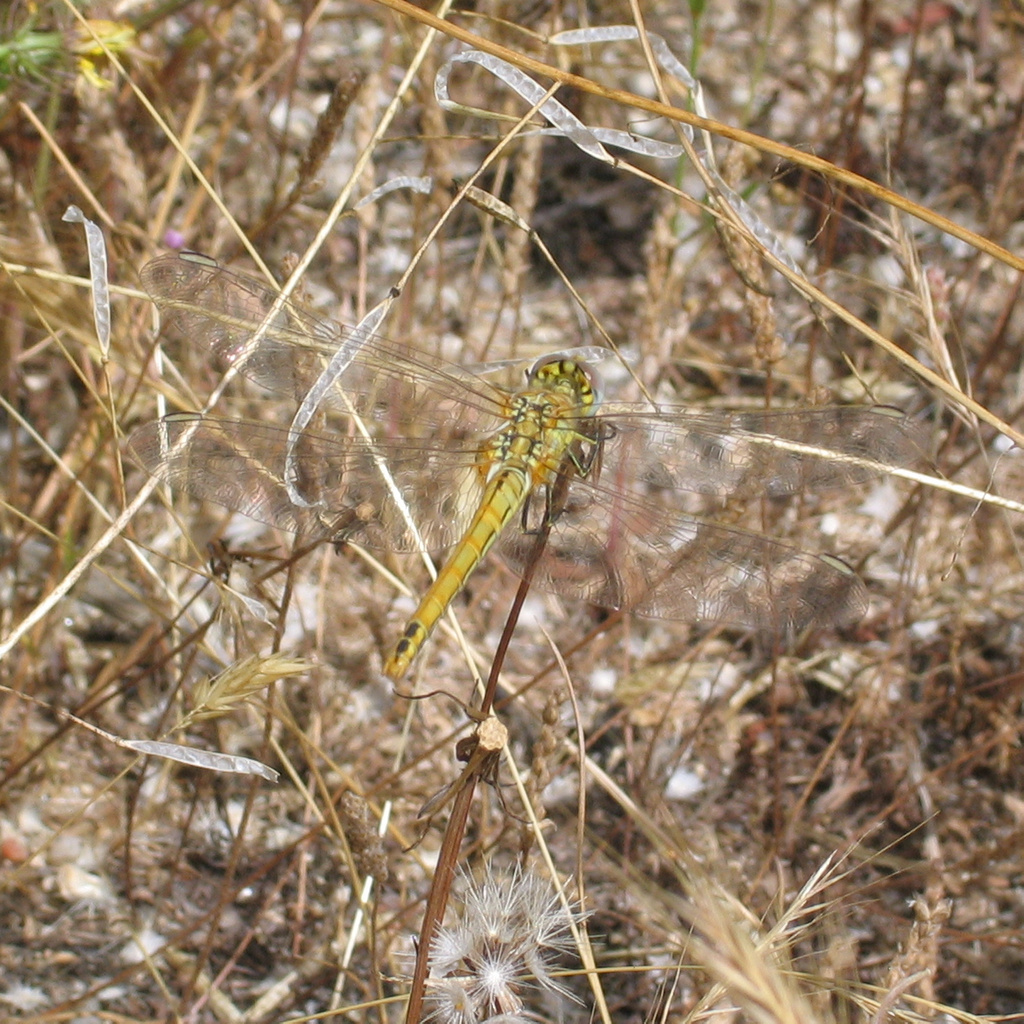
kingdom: Animalia
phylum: Arthropoda
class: Insecta
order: Odonata
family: Libellulidae
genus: Sympetrum
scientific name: Sympetrum fonscolombii
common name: Red-veined darter
